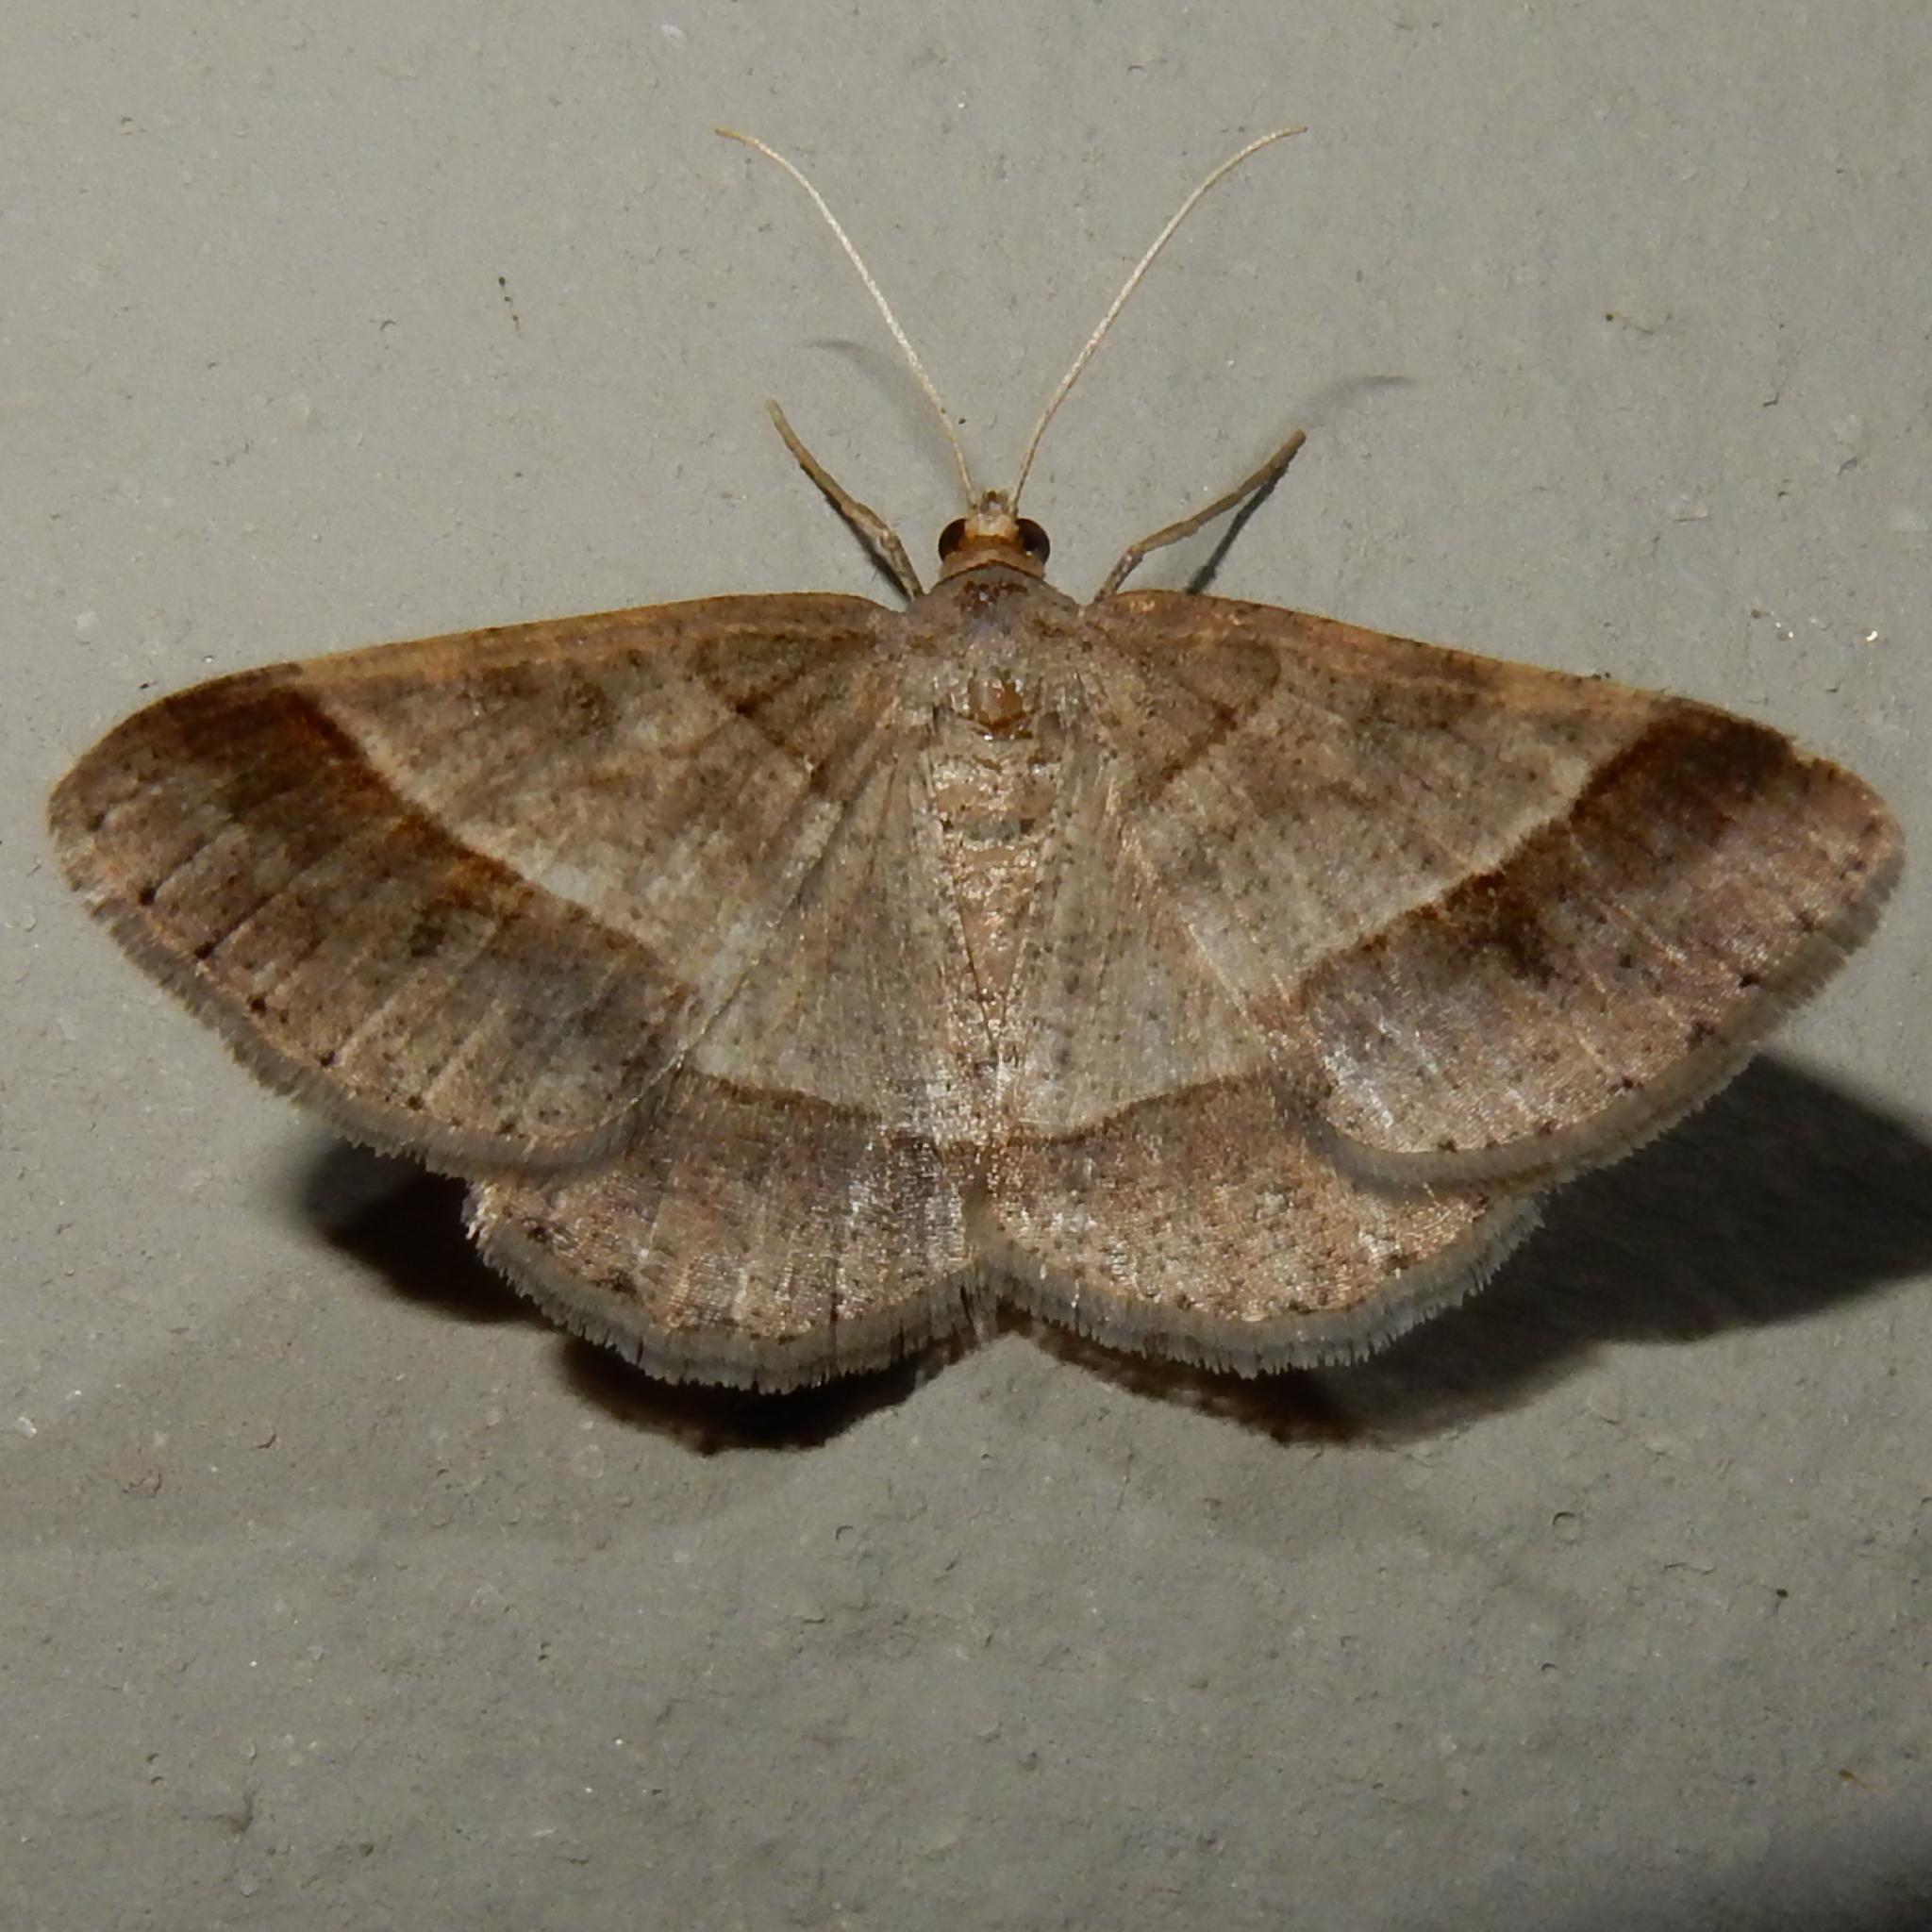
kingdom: Animalia
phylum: Arthropoda
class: Insecta
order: Lepidoptera
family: Geometridae
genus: Isturgia
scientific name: Isturgia deerraria
